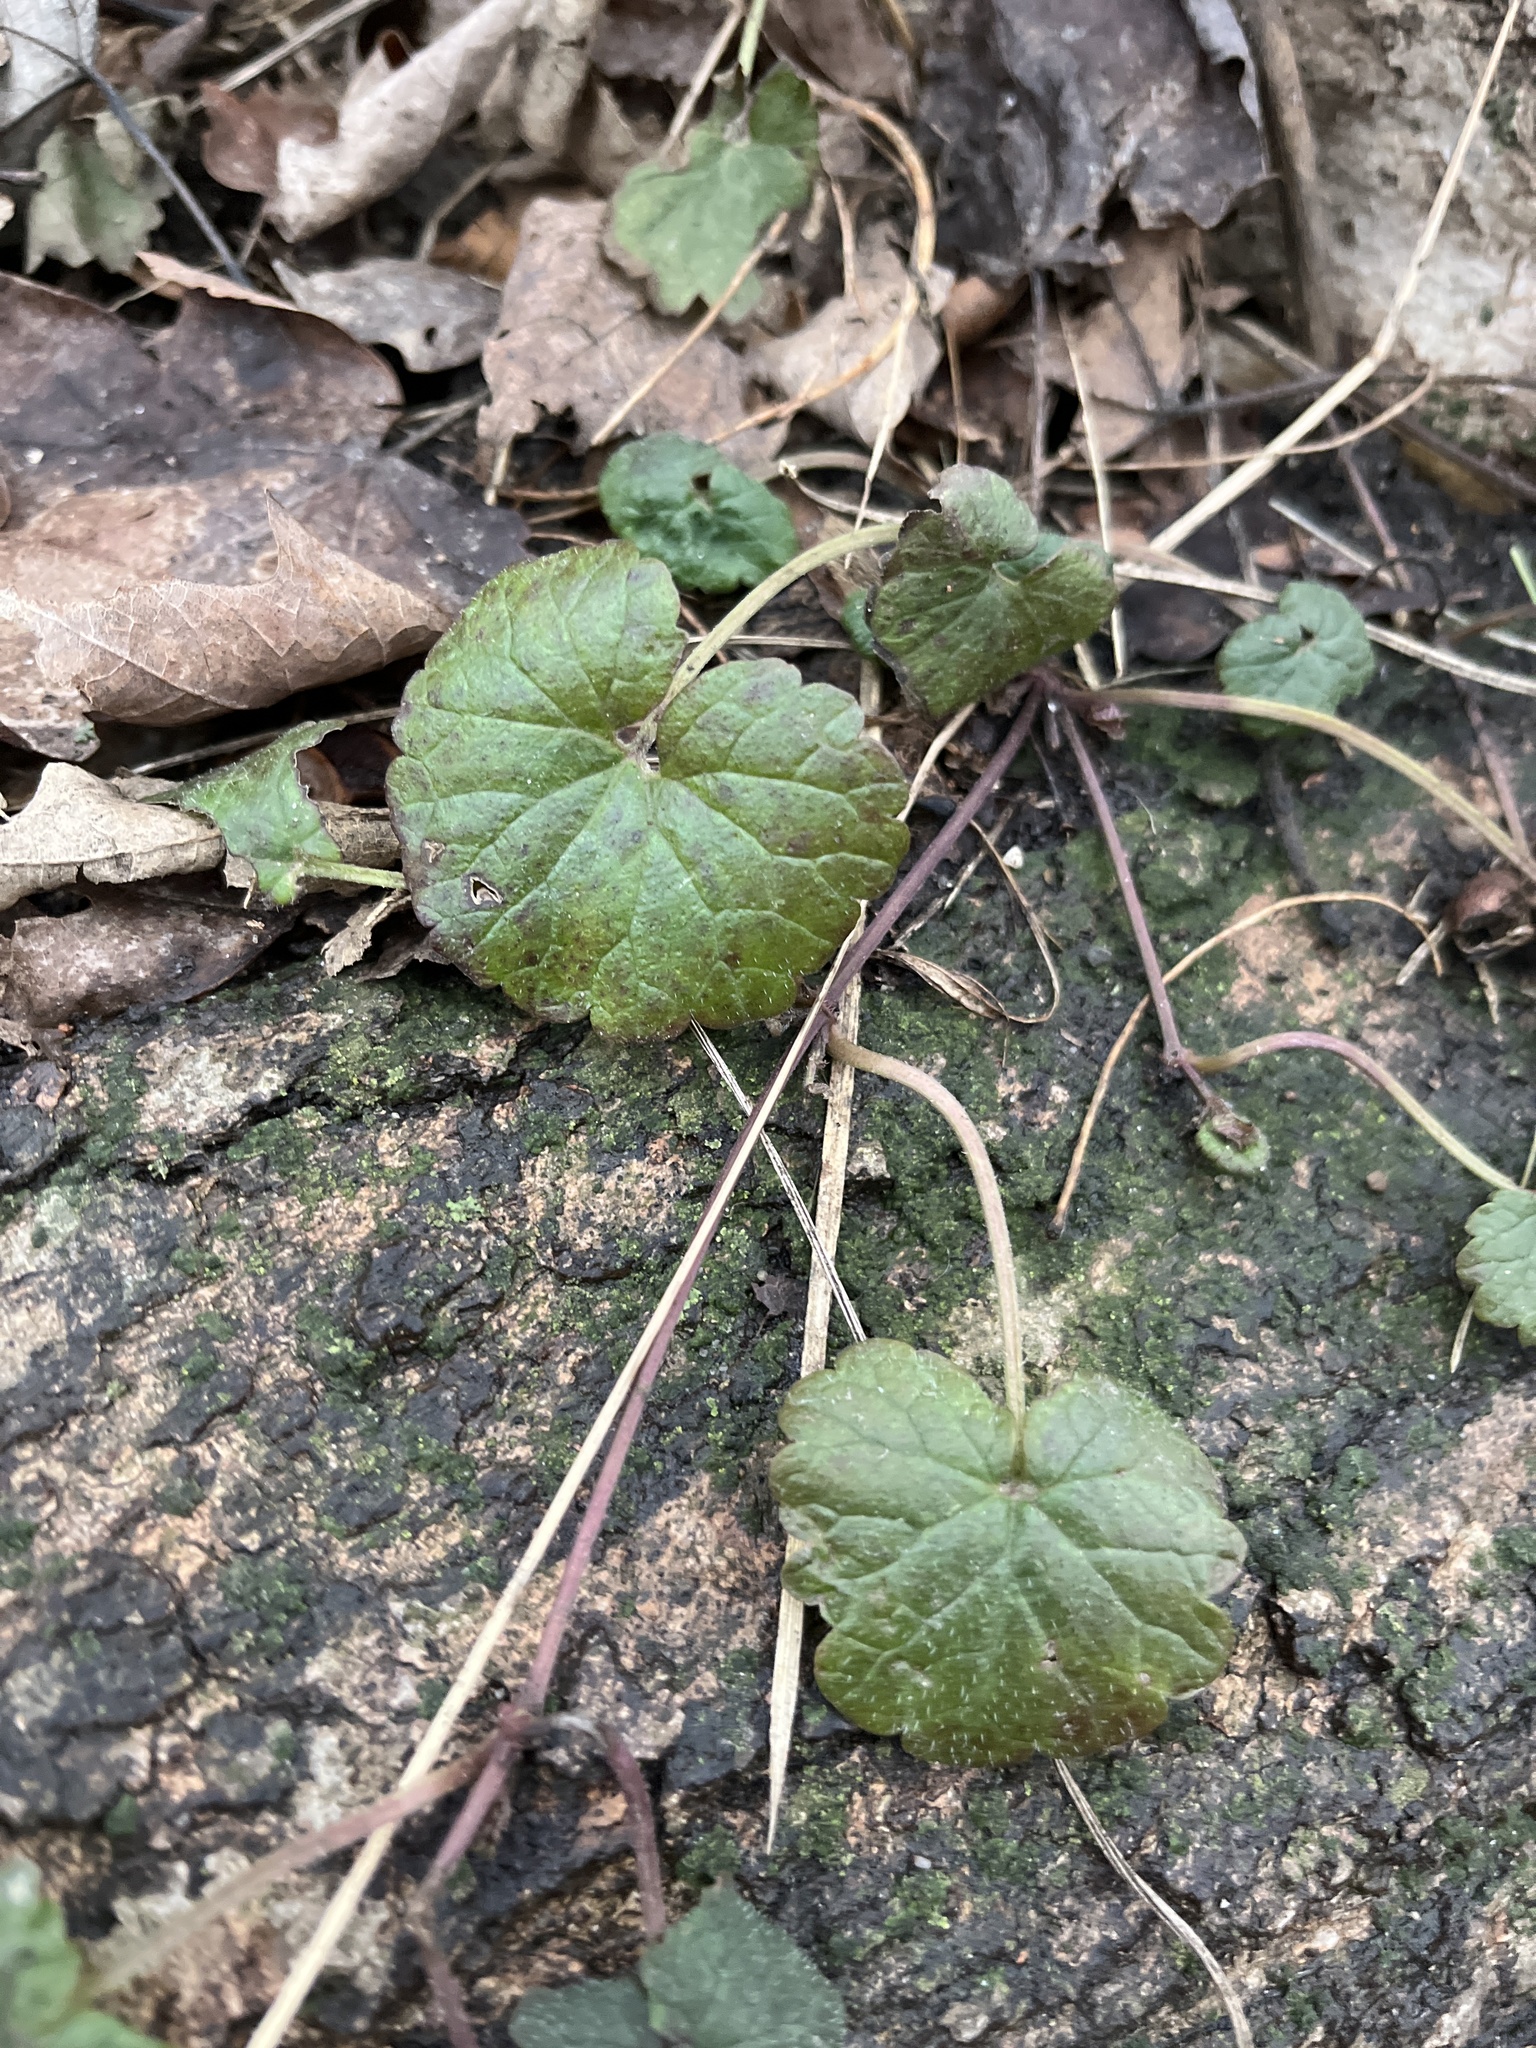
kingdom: Plantae
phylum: Tracheophyta
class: Magnoliopsida
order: Lamiales
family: Lamiaceae
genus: Glechoma
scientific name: Glechoma hederacea
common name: Ground ivy
